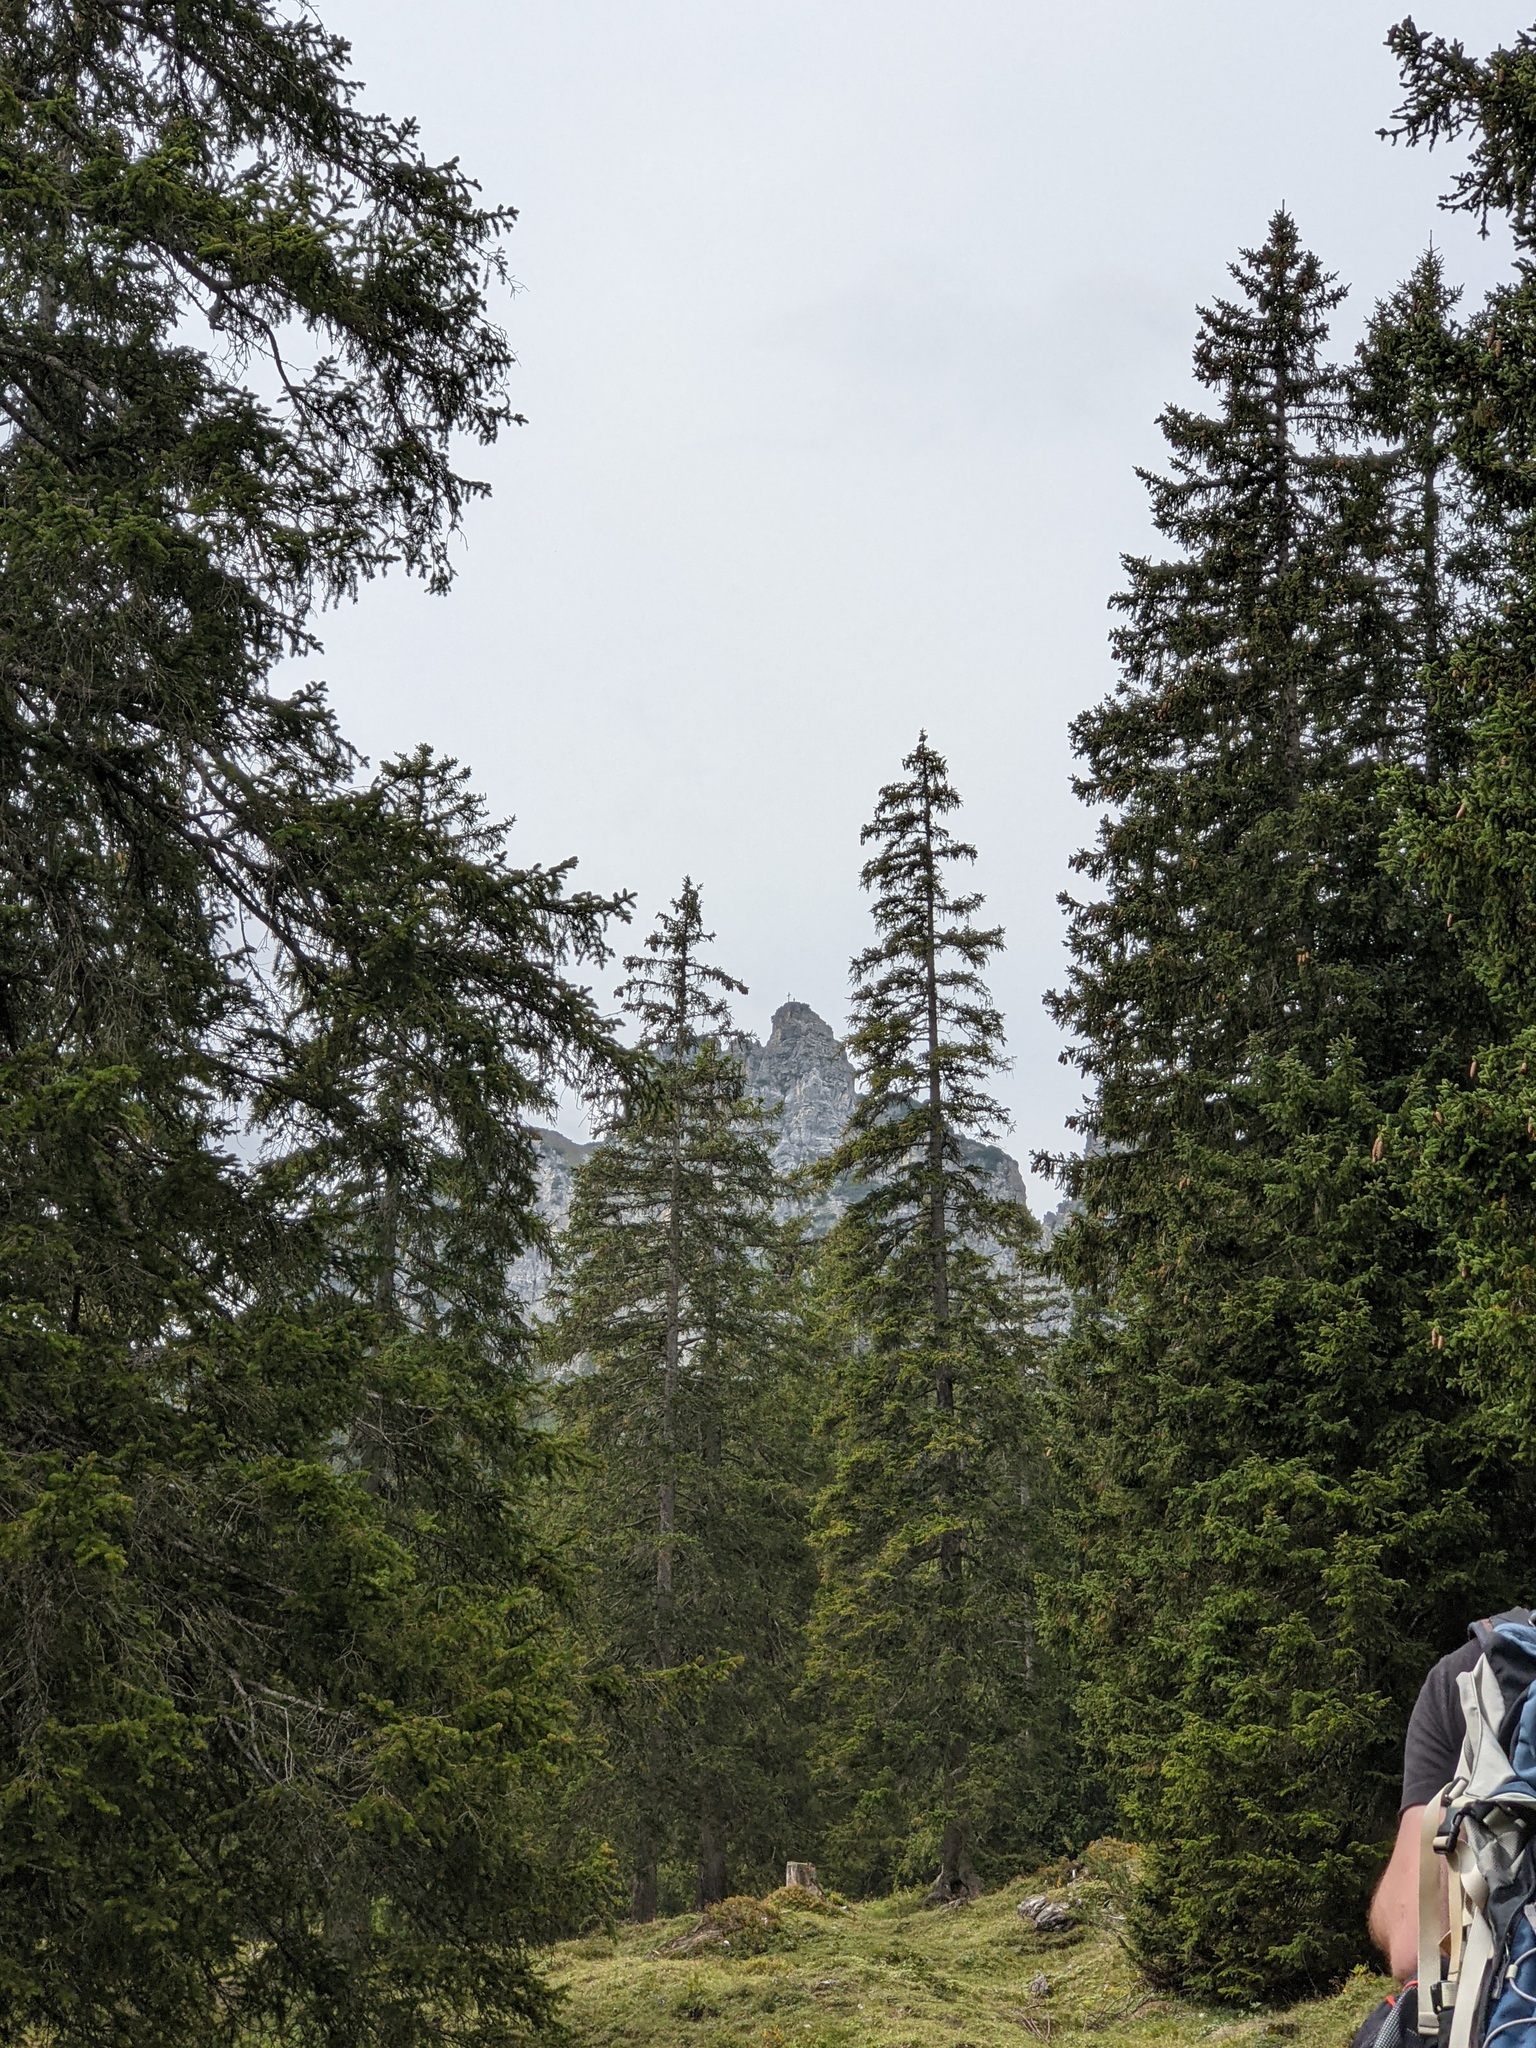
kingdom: Plantae
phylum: Tracheophyta
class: Pinopsida
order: Pinales
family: Pinaceae
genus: Picea
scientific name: Picea abies
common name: Norway spruce
